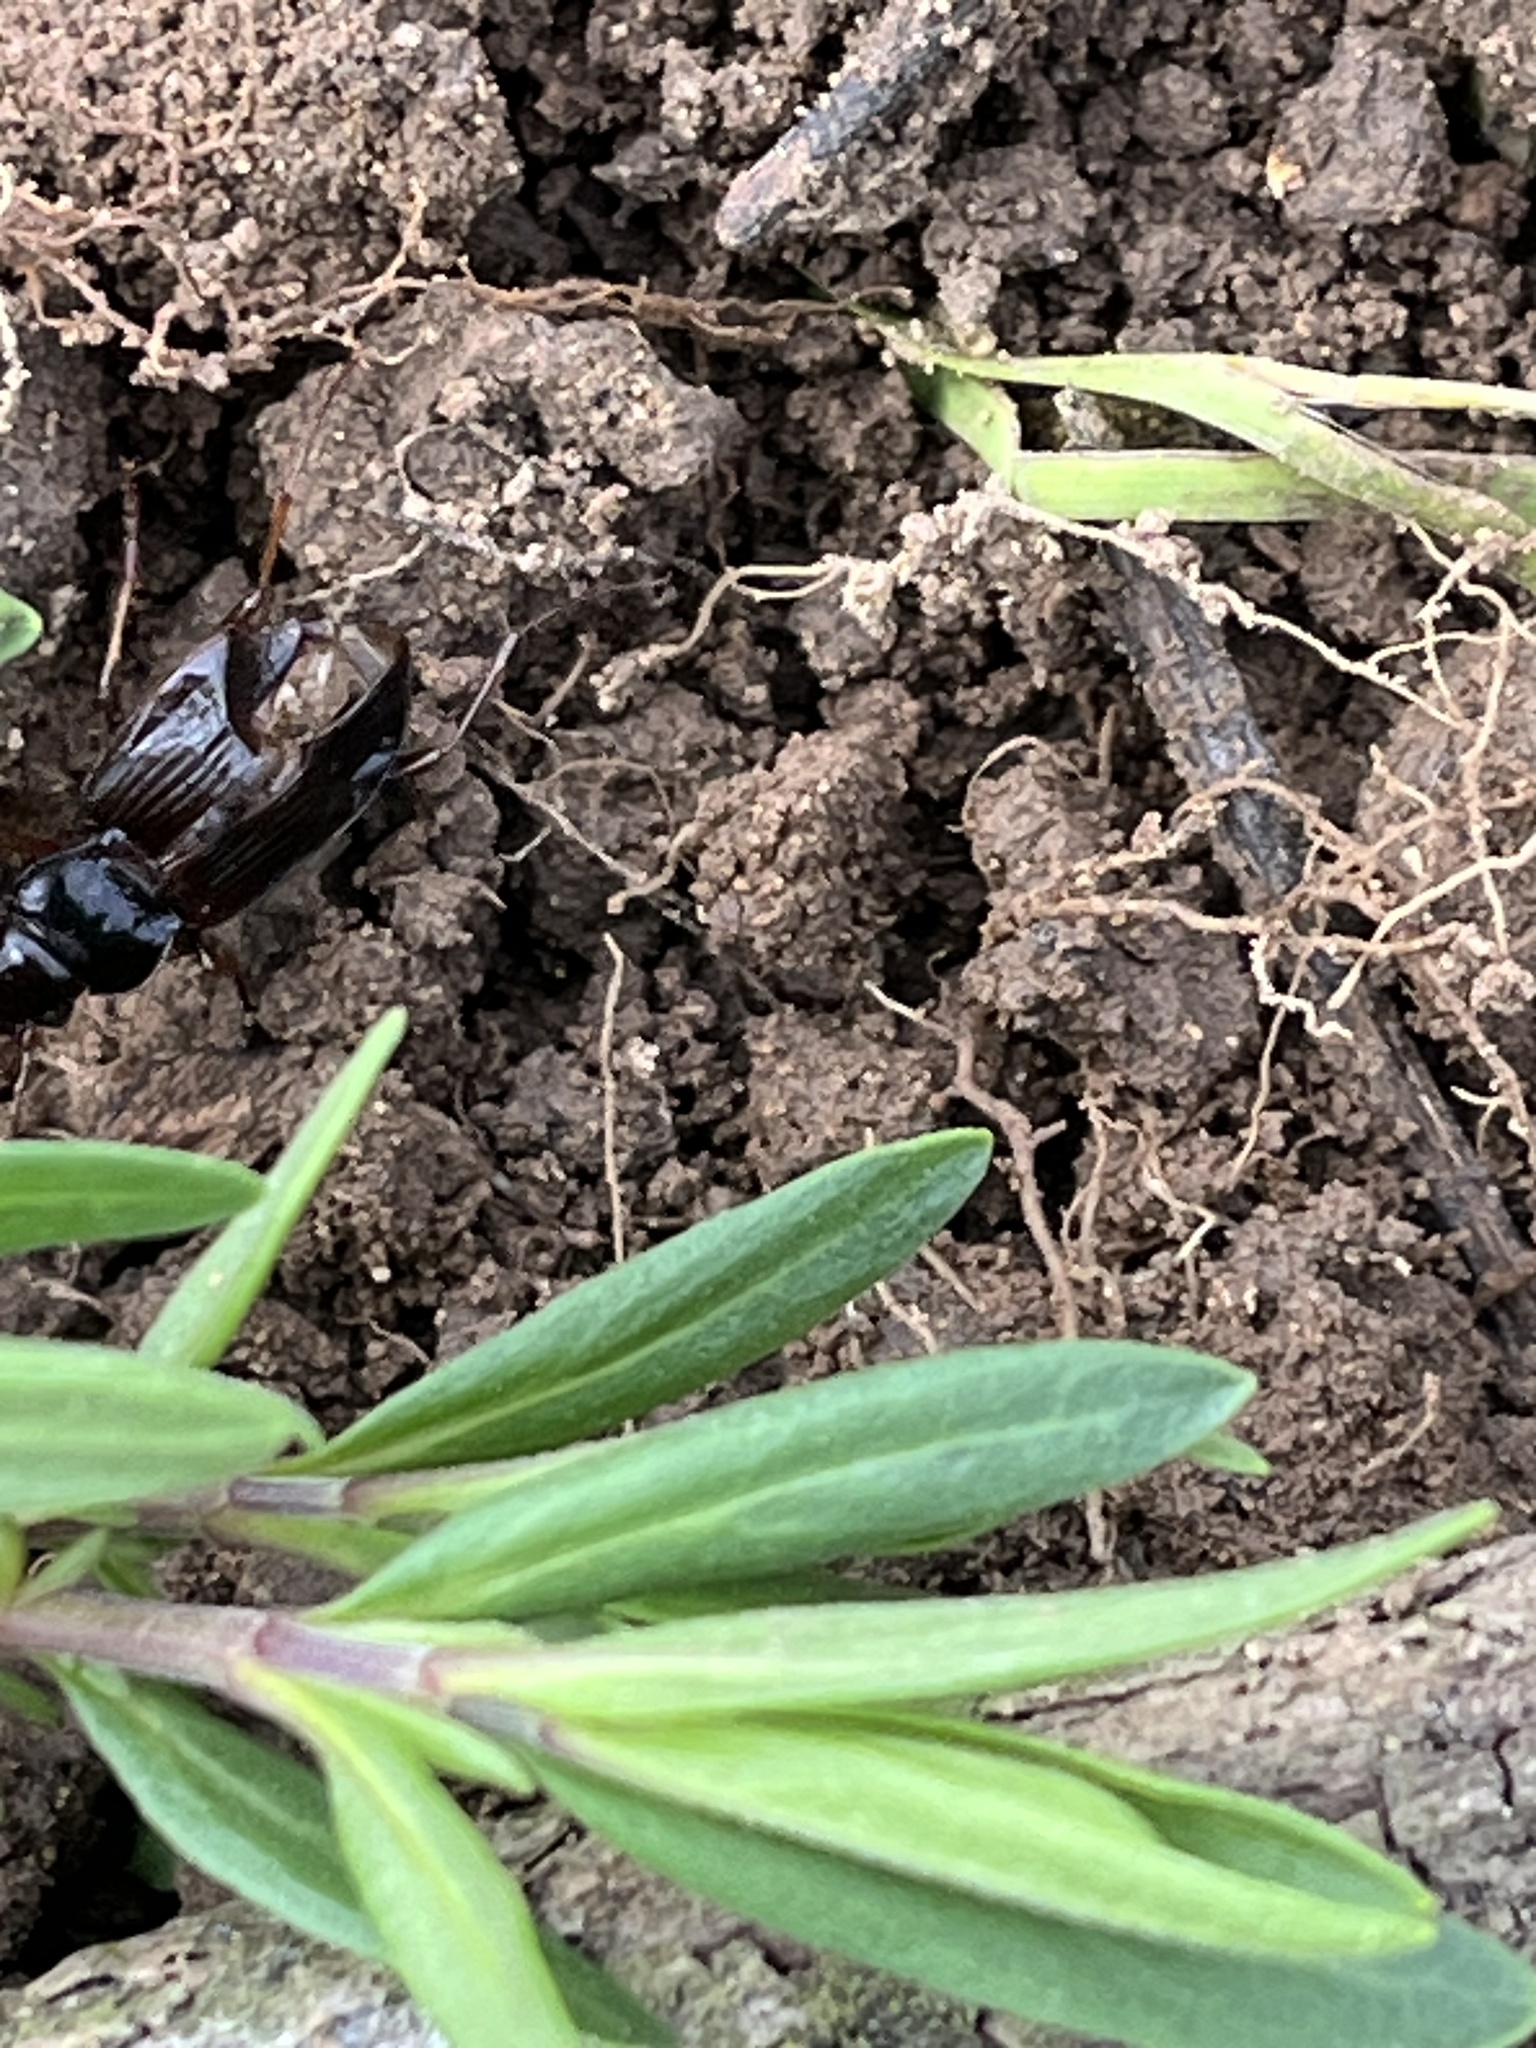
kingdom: Animalia
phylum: Arthropoda
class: Insecta
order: Coleoptera
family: Carabidae
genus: Nebria
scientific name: Nebria brevicollis
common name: Short-necked gazelle beetle
